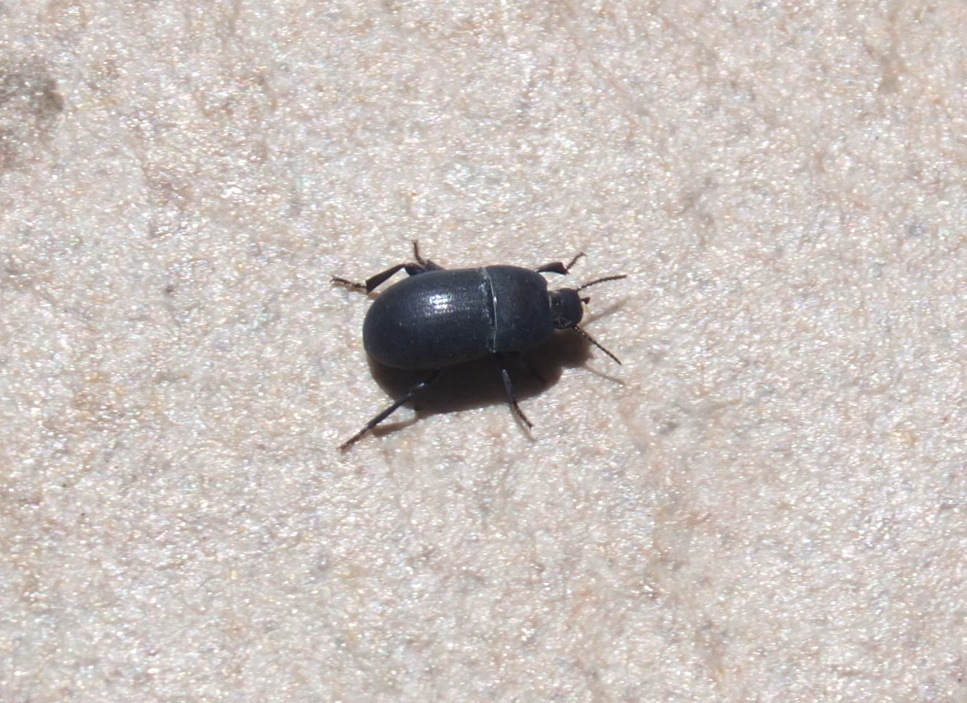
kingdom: Animalia
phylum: Arthropoda
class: Insecta
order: Coleoptera
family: Tenebrionidae
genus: Pedinus
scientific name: Pedinus meridianus
